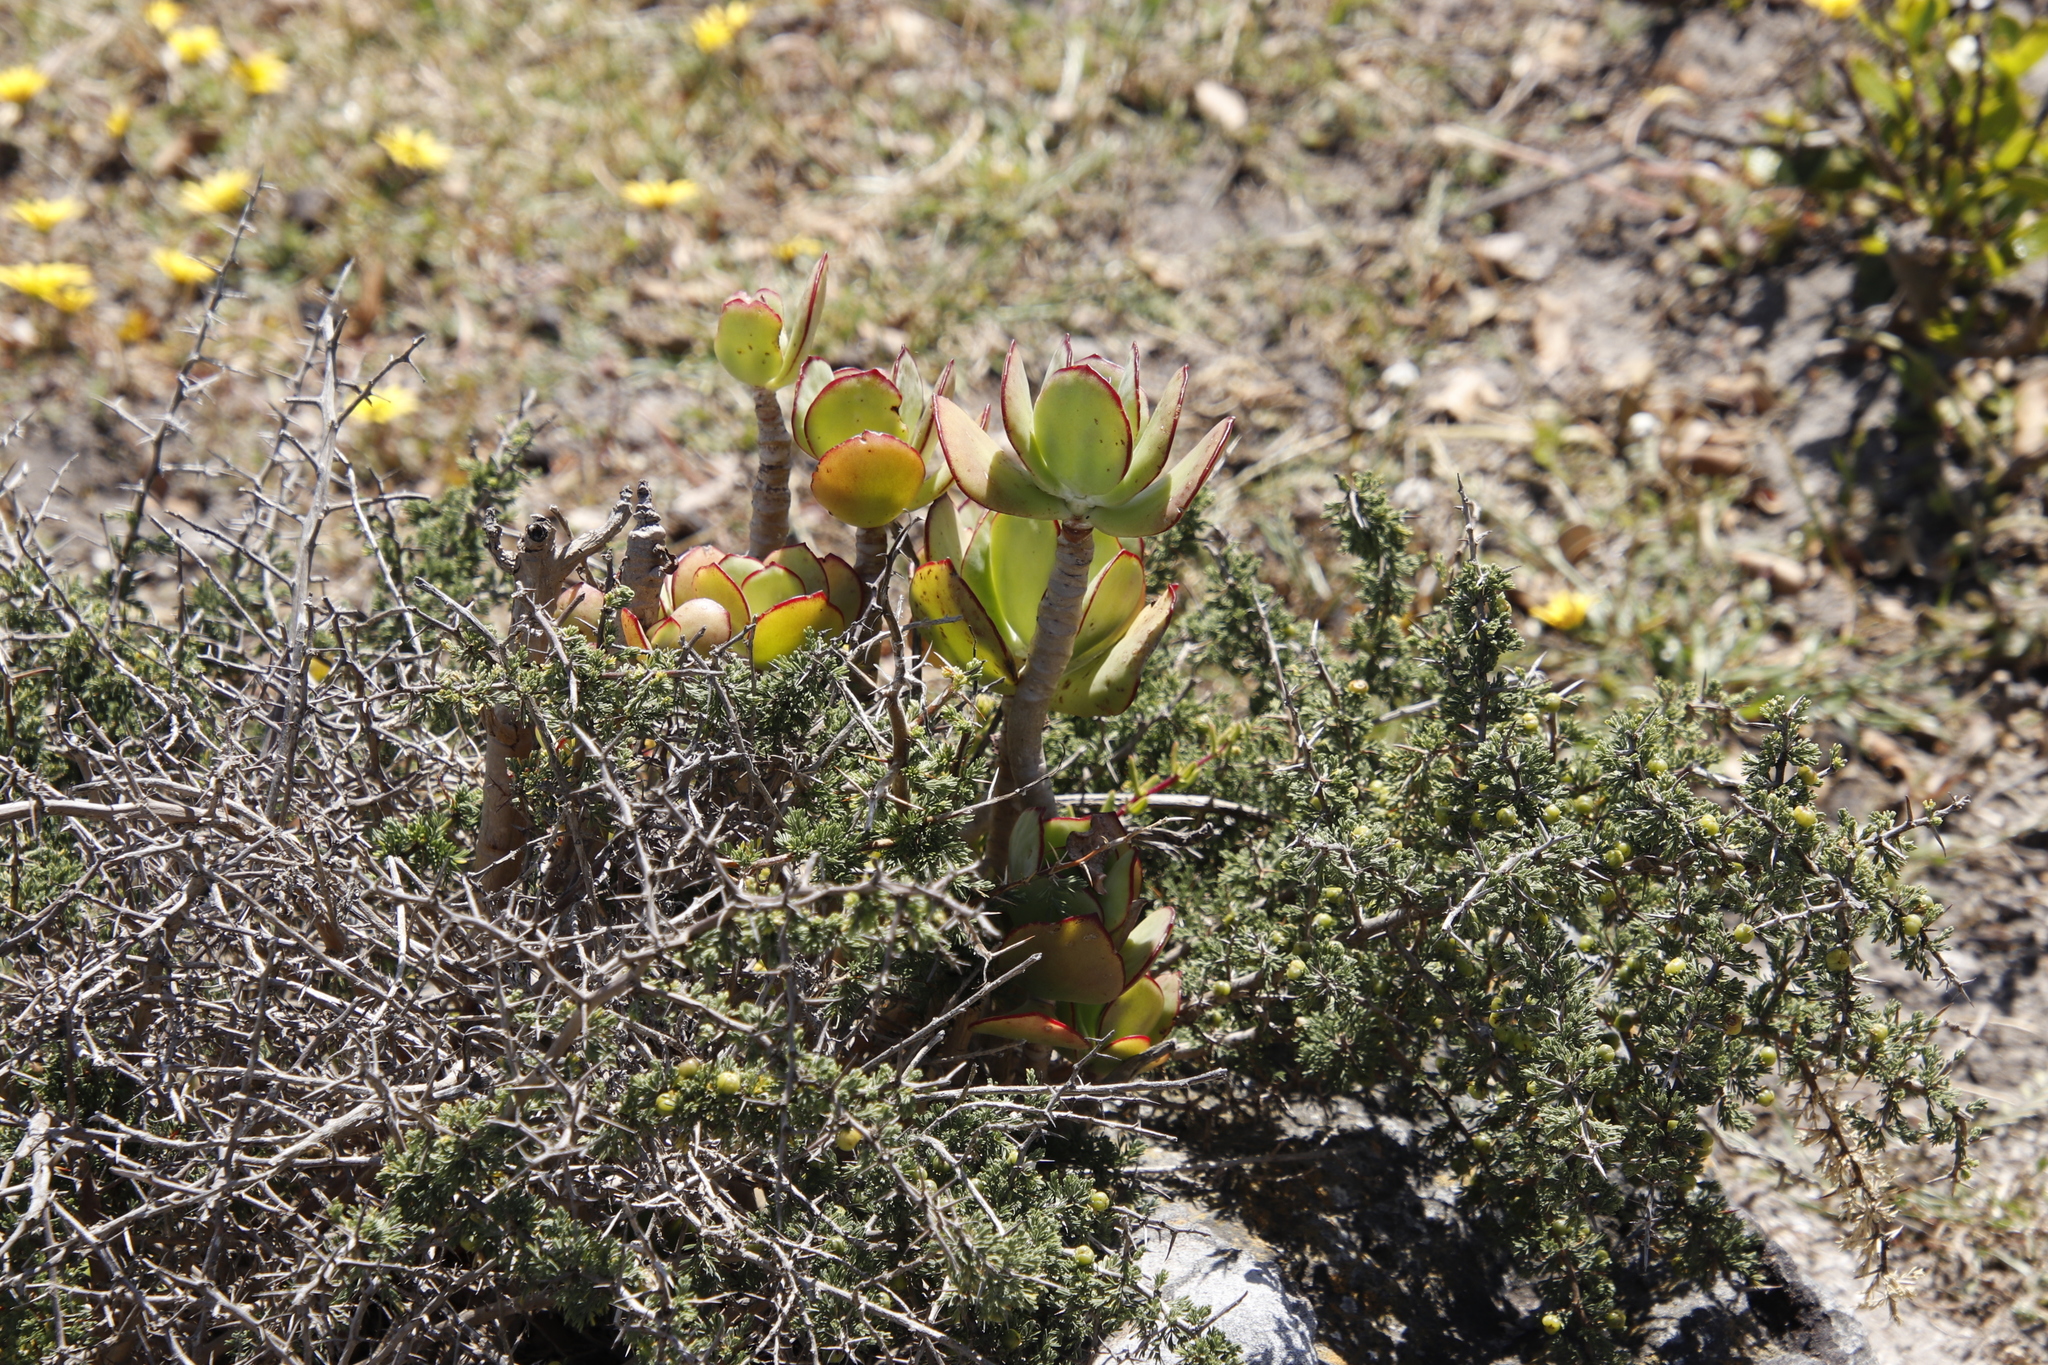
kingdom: Plantae
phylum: Tracheophyta
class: Magnoliopsida
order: Saxifragales
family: Crassulaceae
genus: Cotyledon
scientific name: Cotyledon orbiculata
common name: Pig's ear
